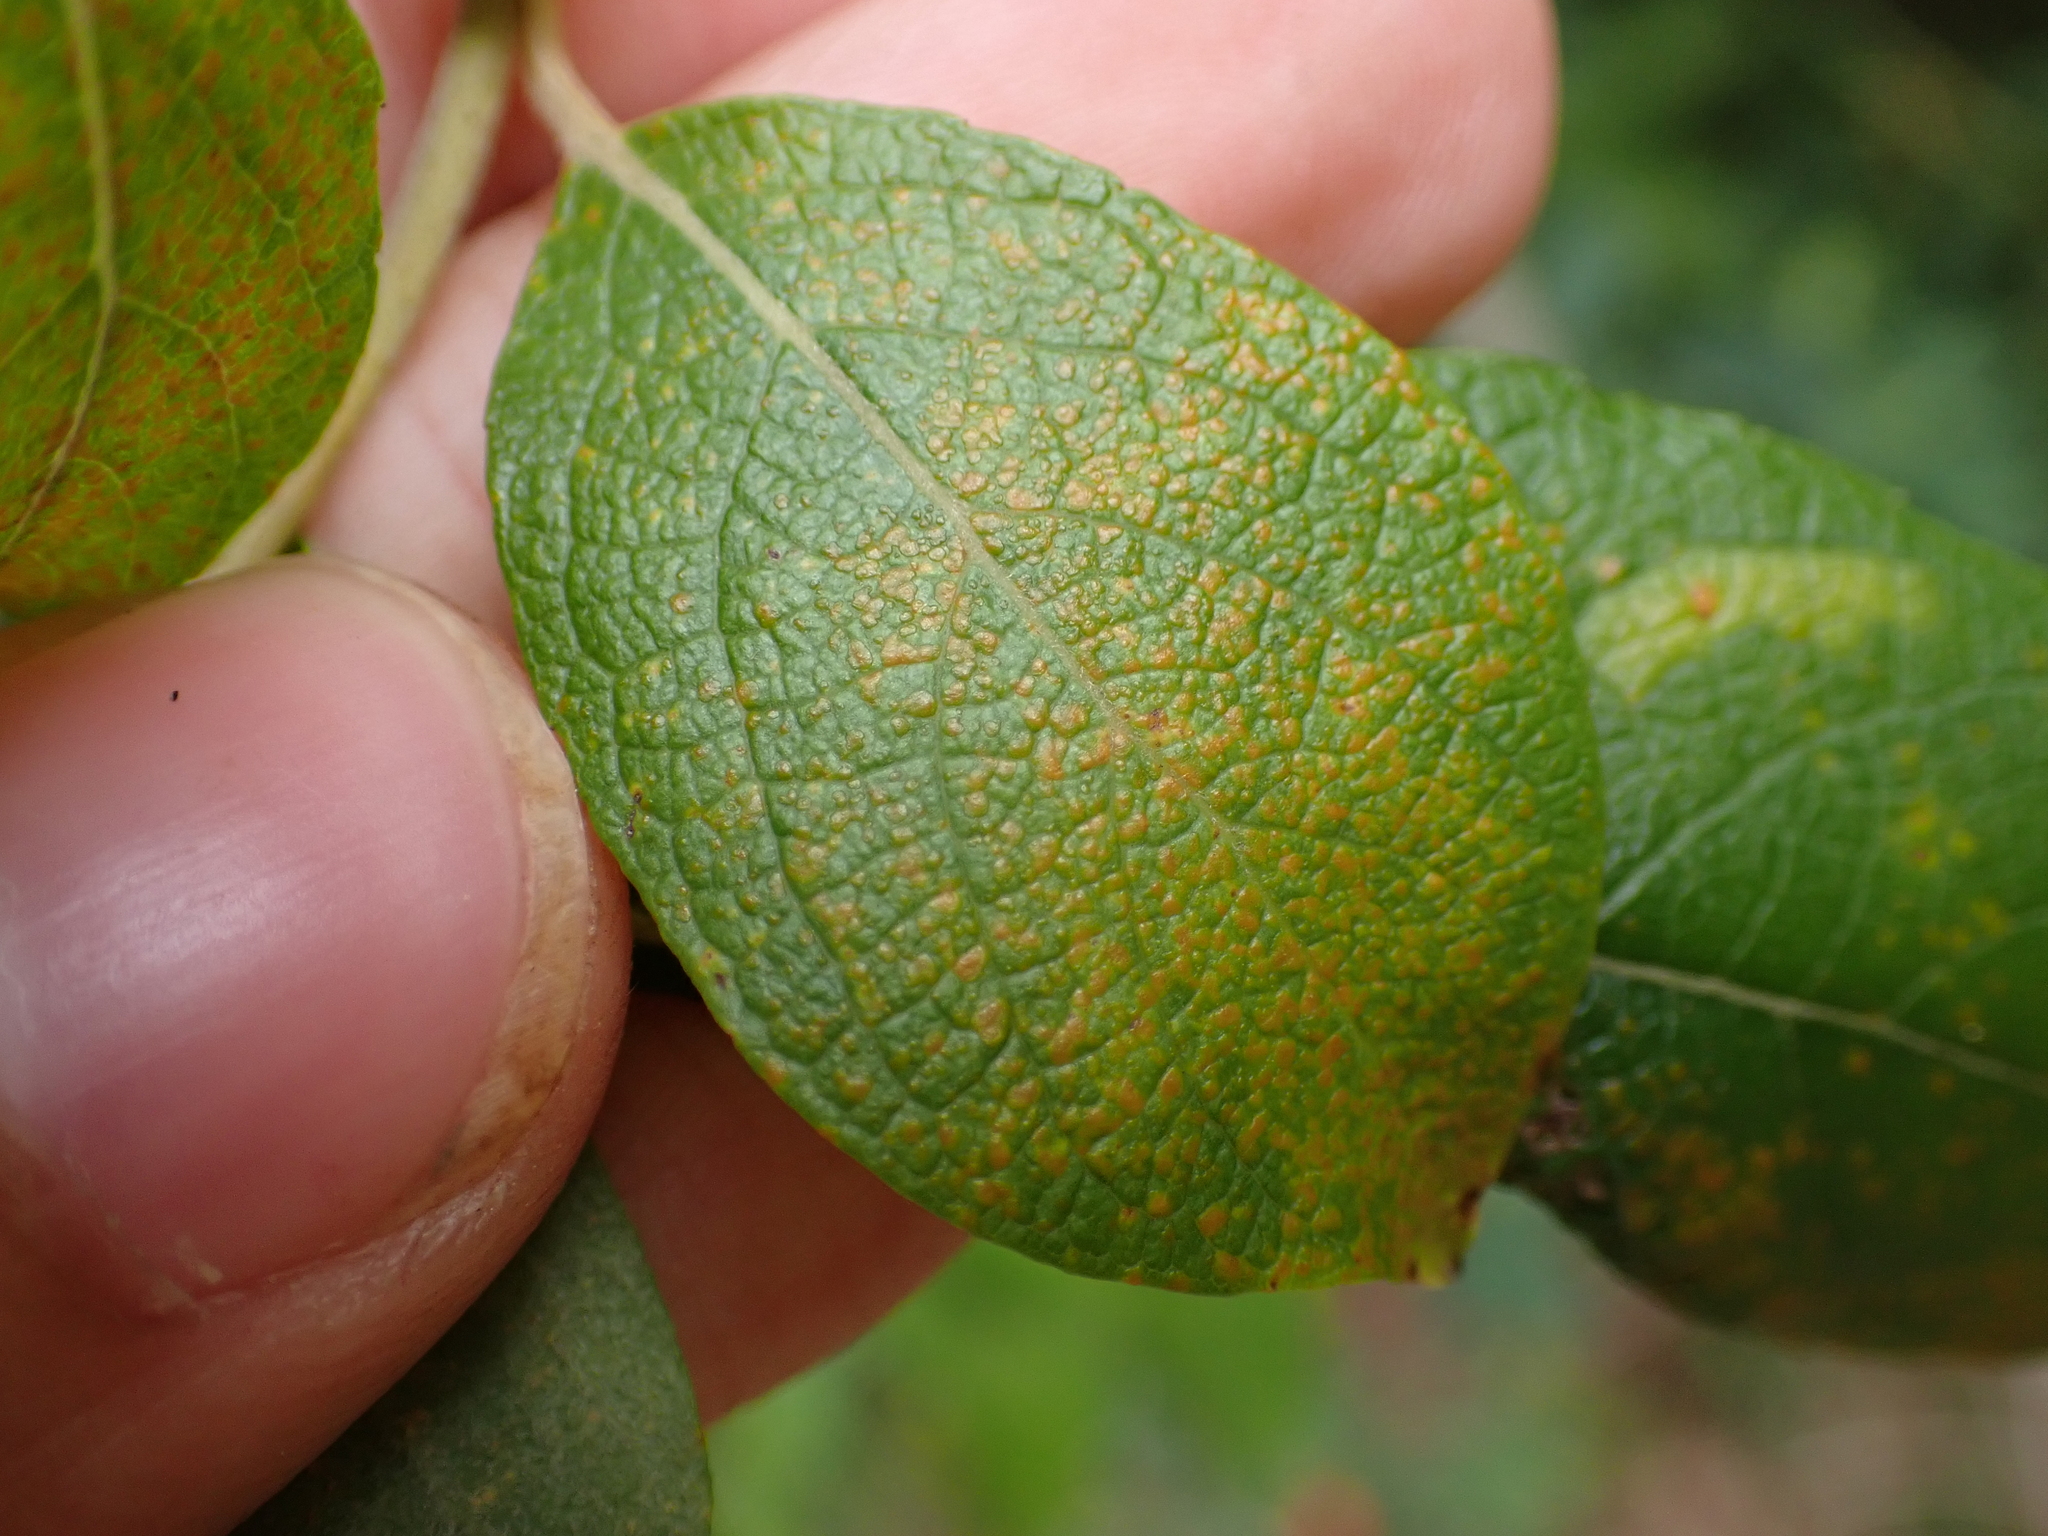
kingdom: Plantae
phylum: Tracheophyta
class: Magnoliopsida
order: Malpighiales
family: Salicaceae
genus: Salix
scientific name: Salix caprea
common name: Goat willow
